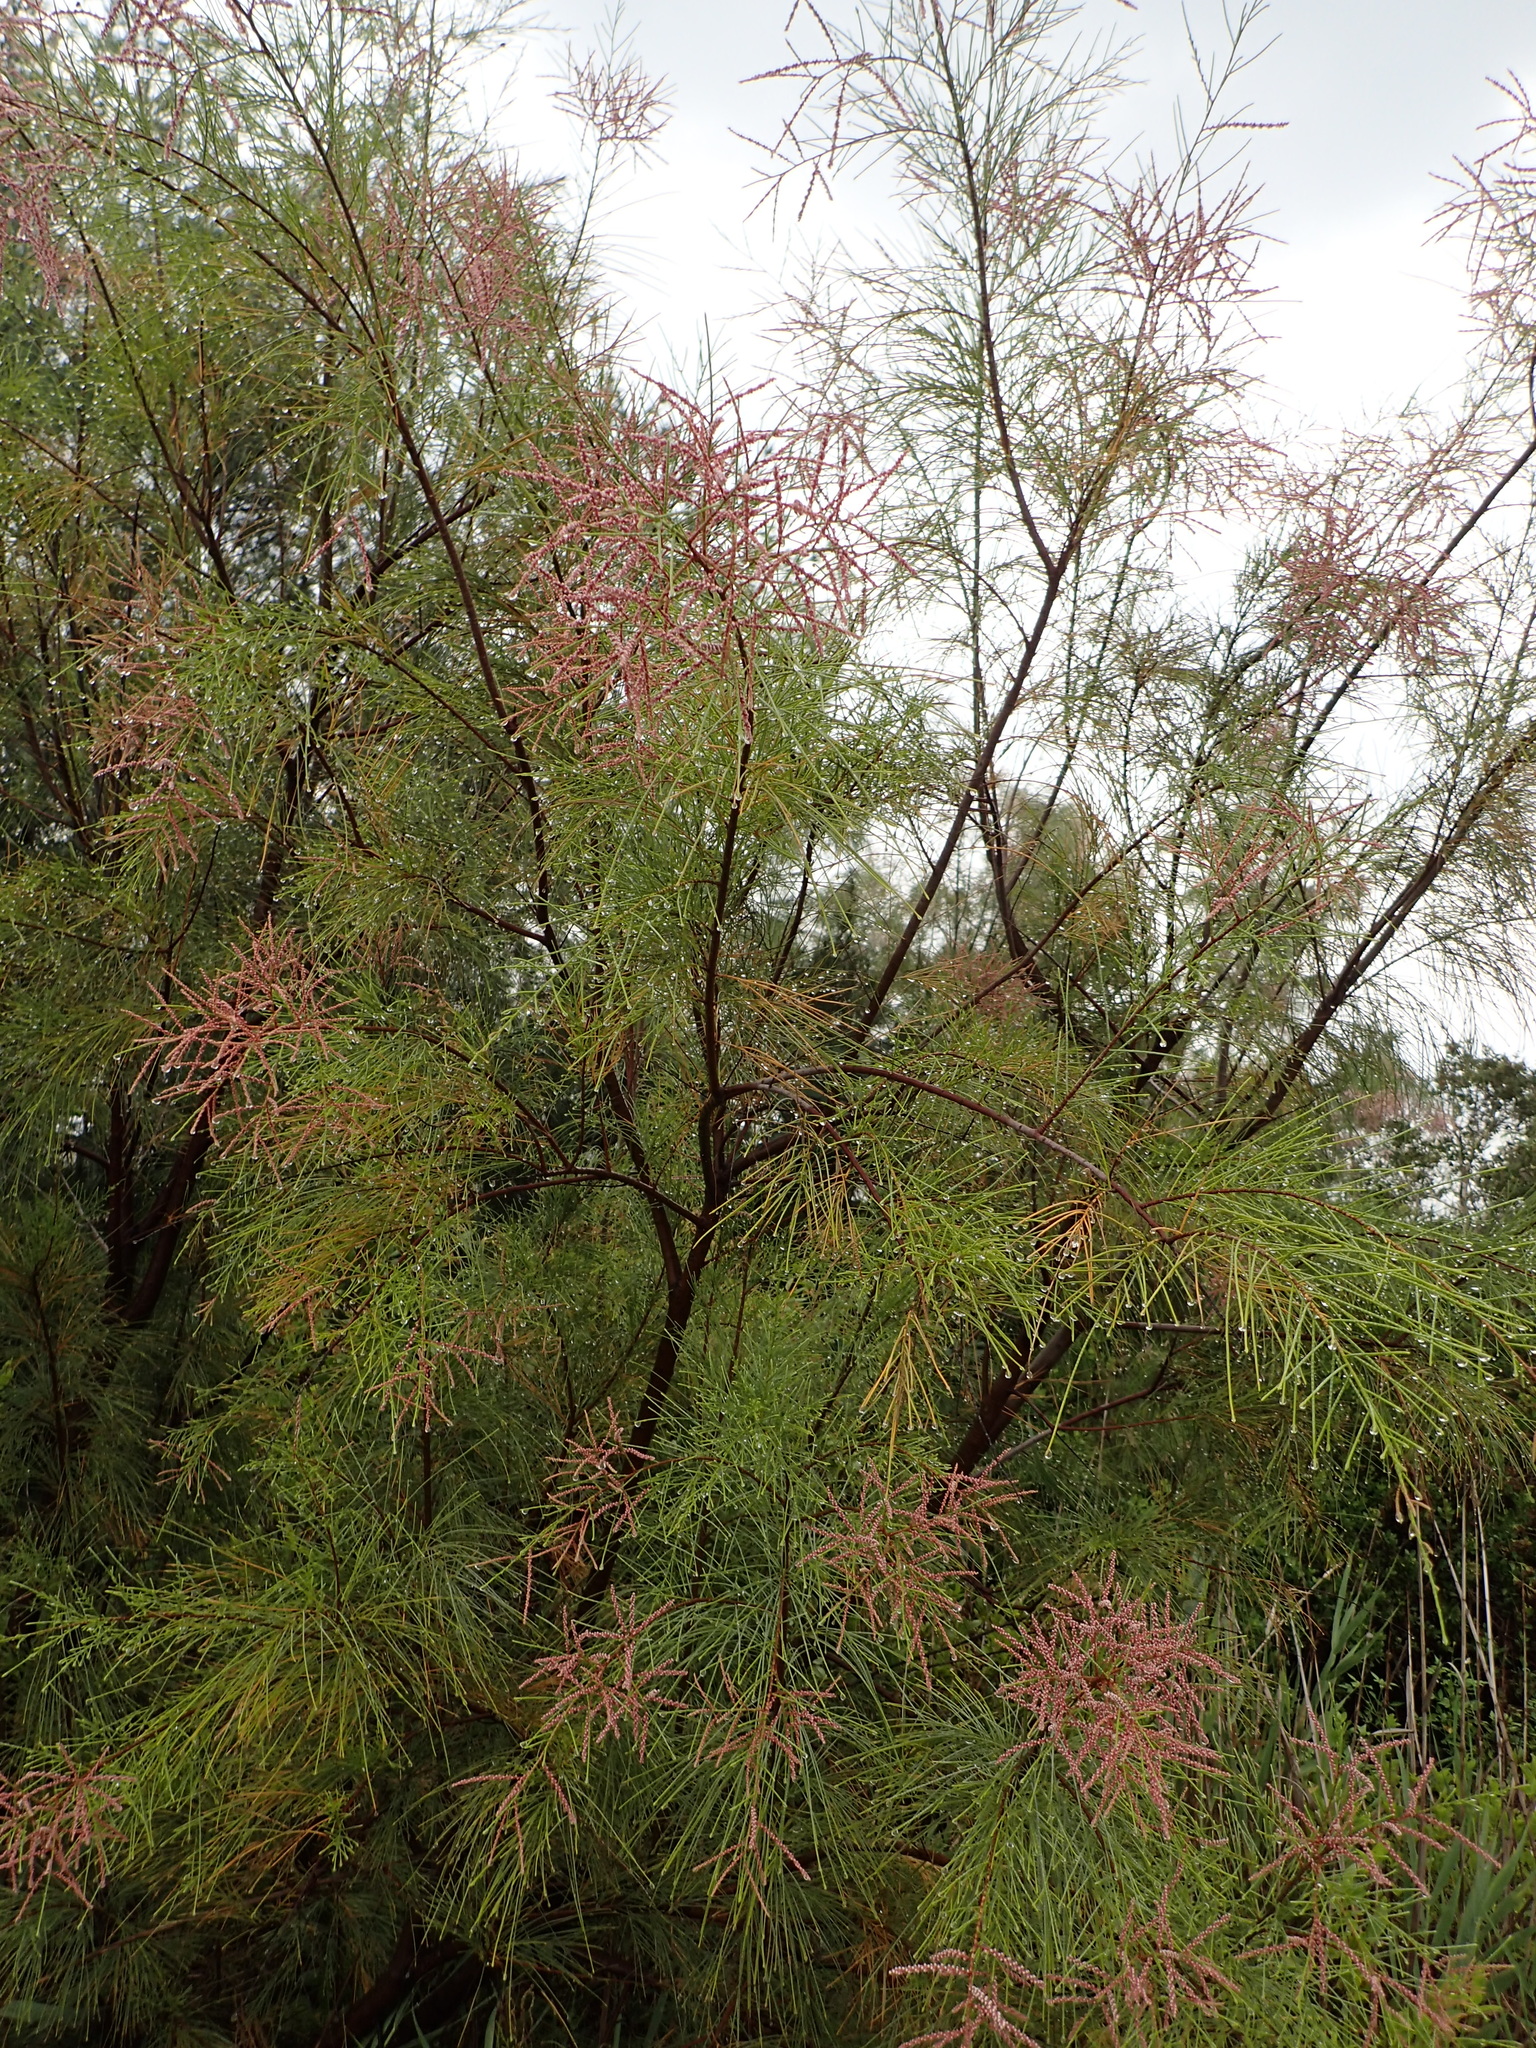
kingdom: Plantae
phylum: Tracheophyta
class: Magnoliopsida
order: Caryophyllales
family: Tamaricaceae
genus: Tamarix
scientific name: Tamarix aphylla
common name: Athel tamarisk
